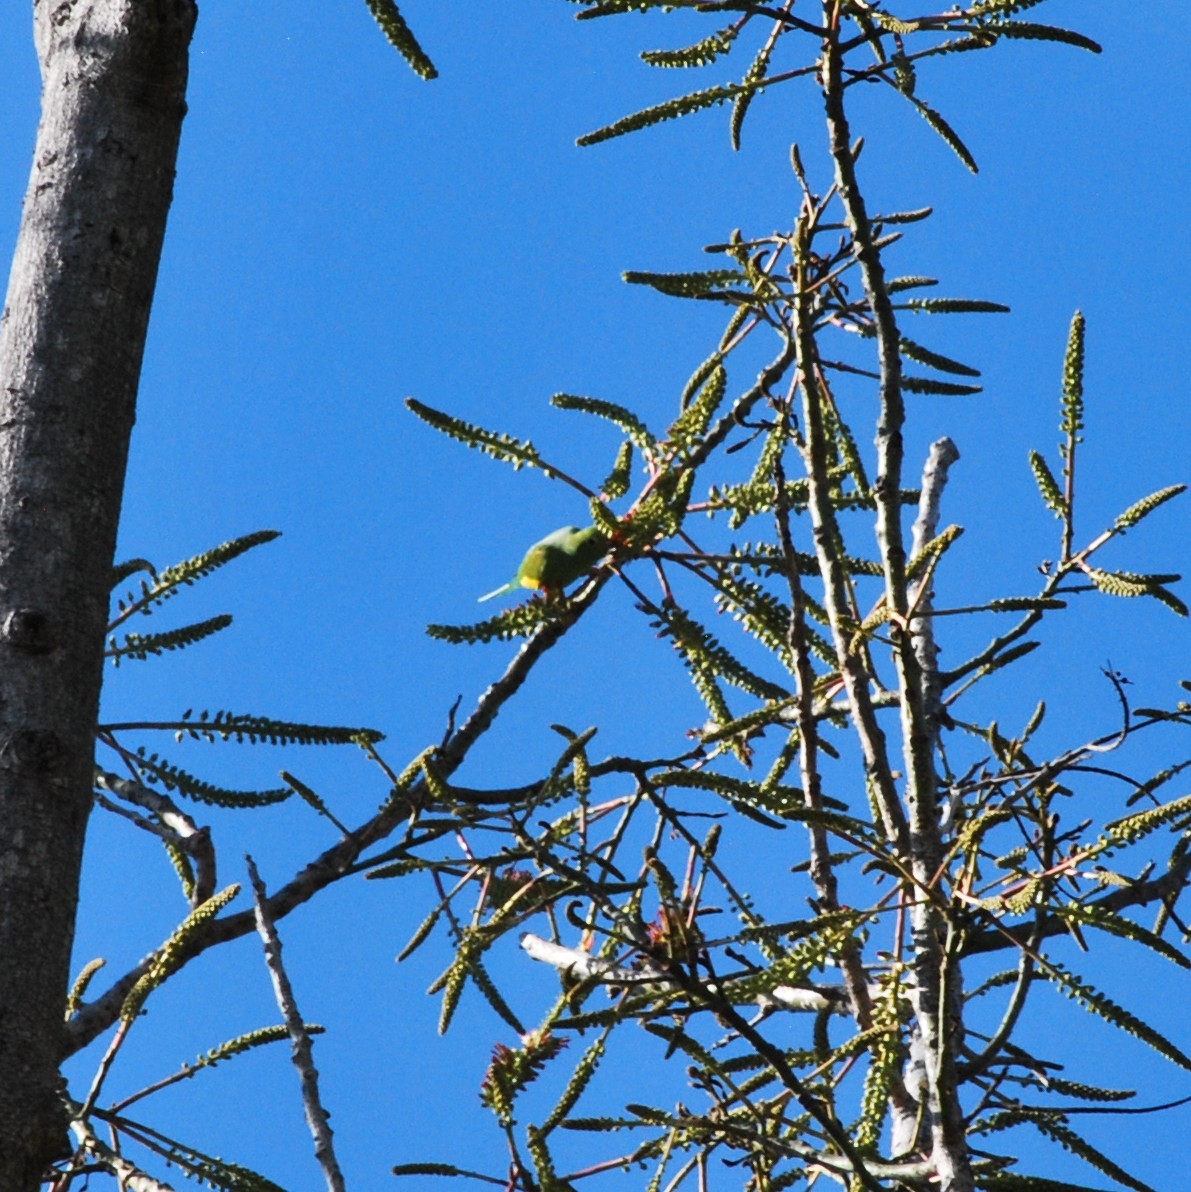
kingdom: Animalia
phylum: Chordata
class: Aves
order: Psittaciformes
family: Psittacidae
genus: Brotogeris
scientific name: Brotogeris chiriri
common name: Yellow-chevroned parakeet
